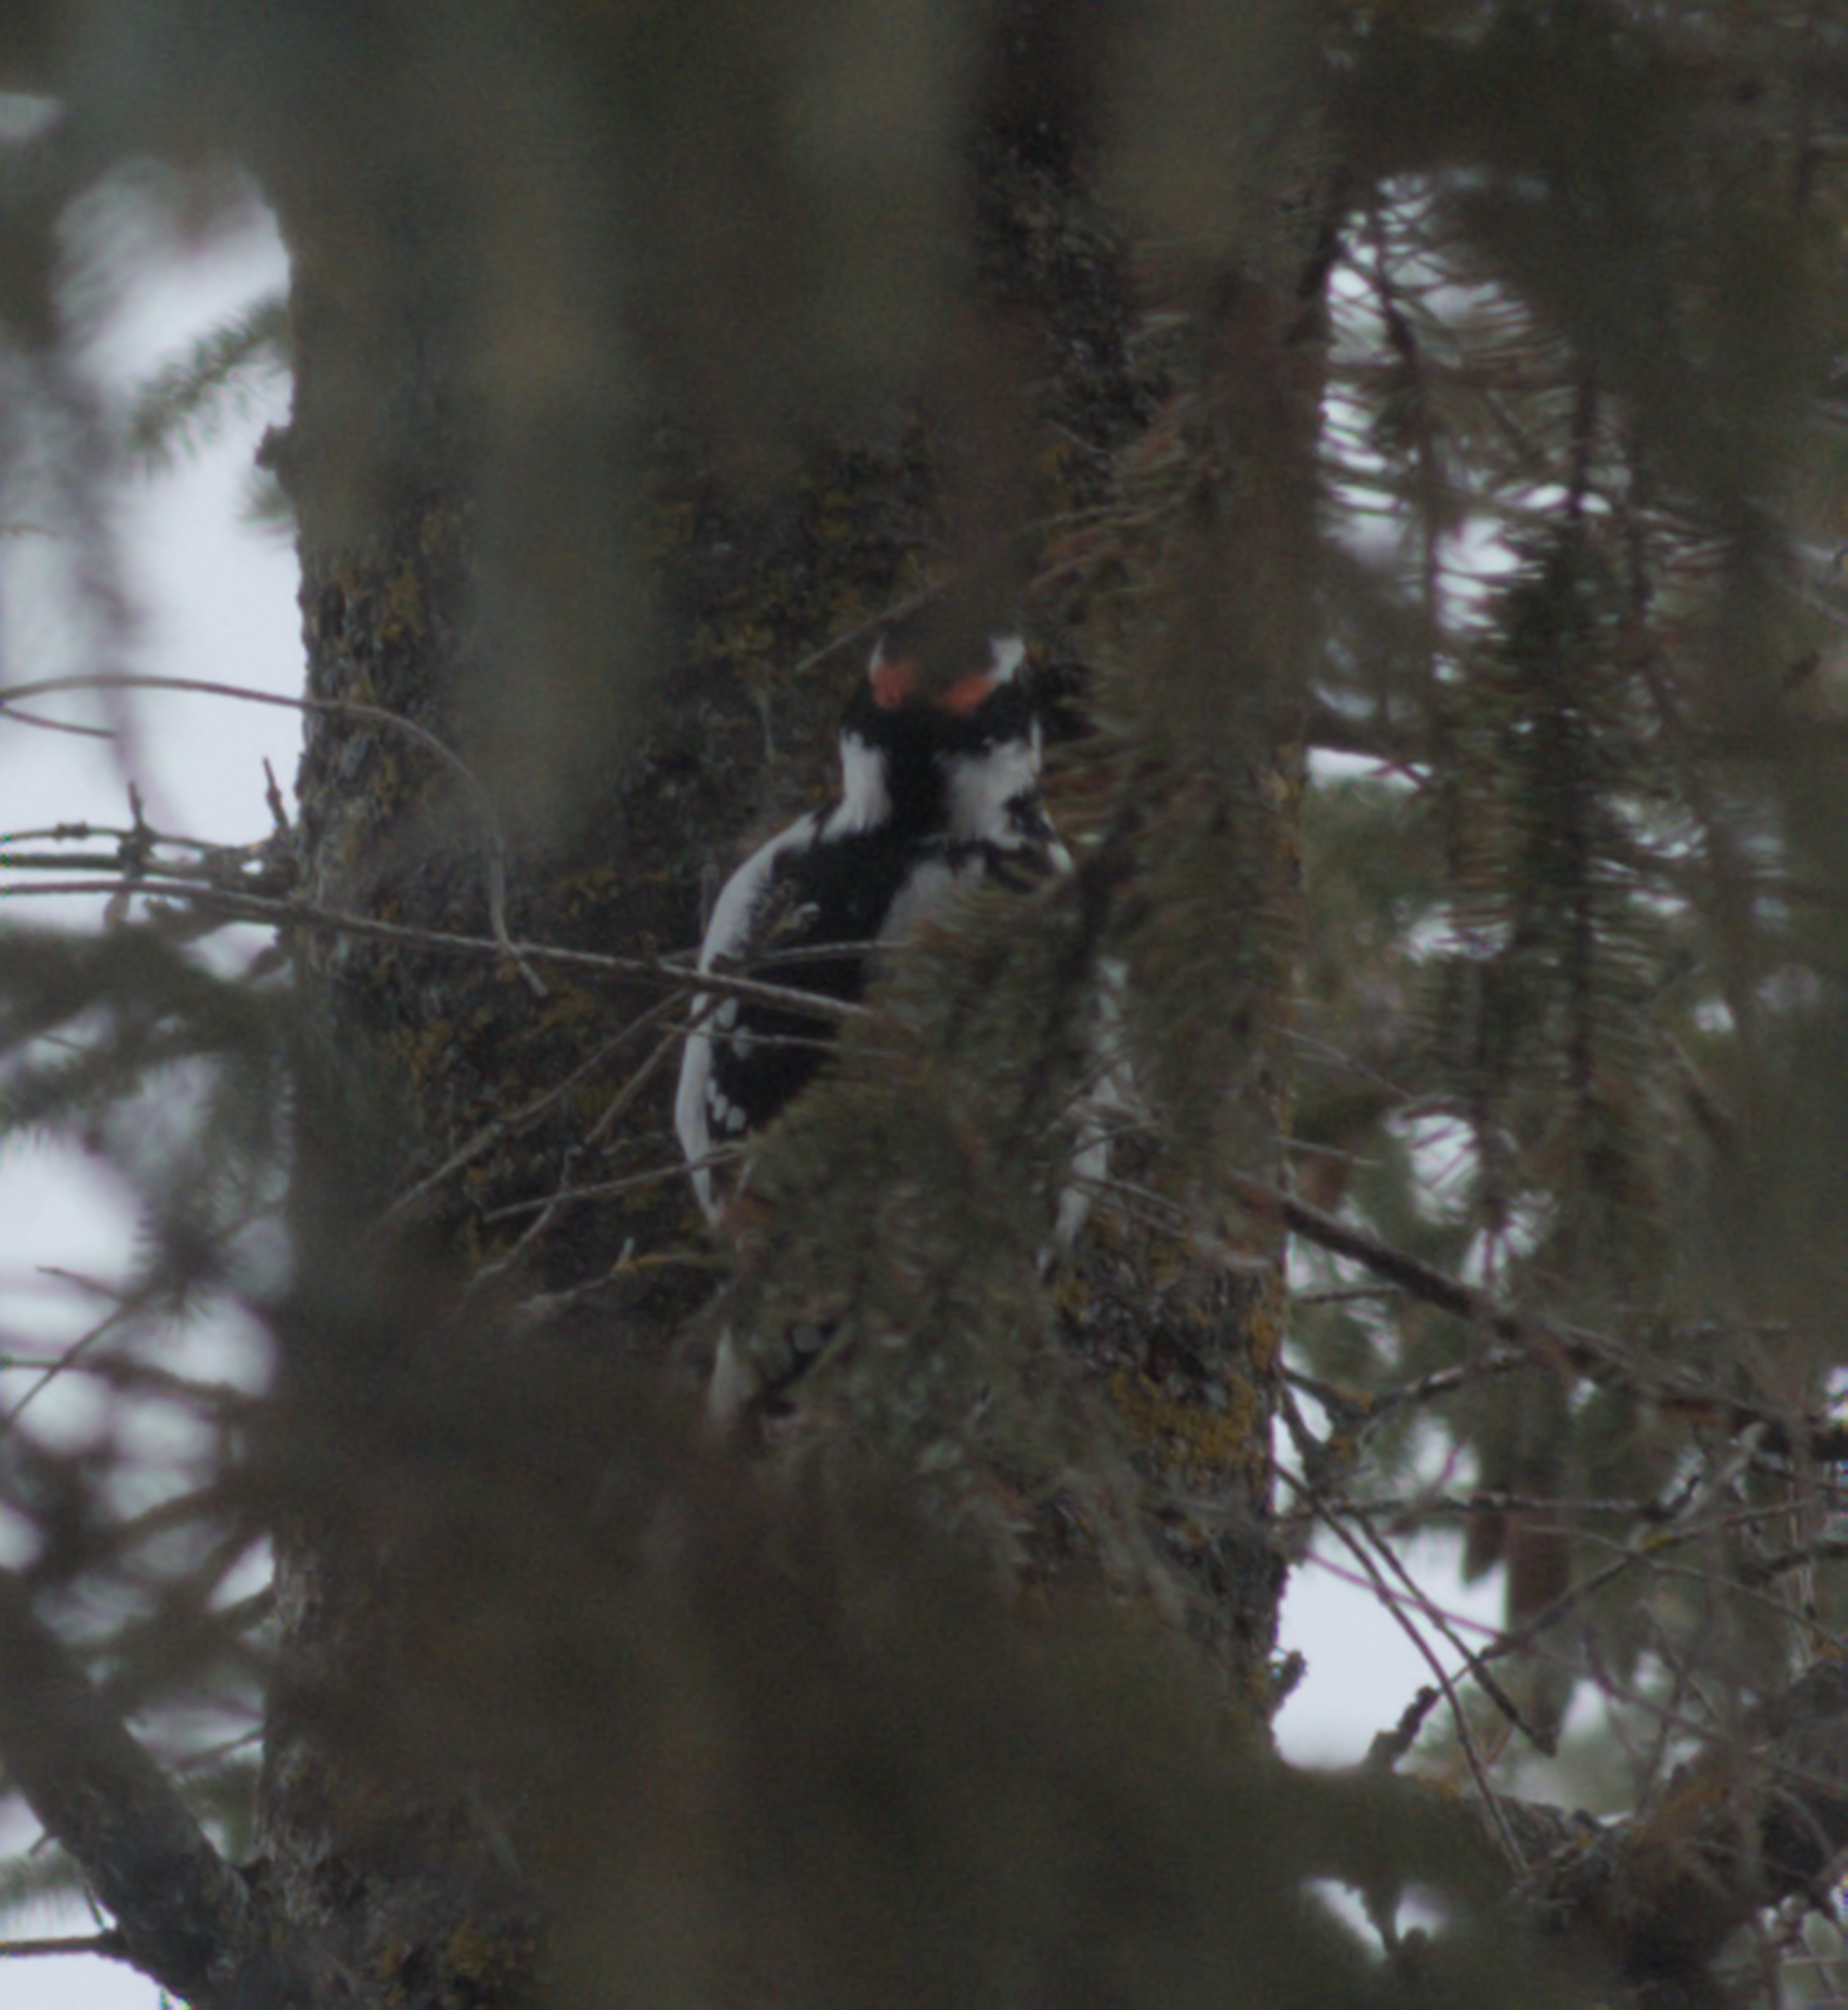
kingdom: Animalia
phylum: Chordata
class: Aves
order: Piciformes
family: Picidae
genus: Leuconotopicus
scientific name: Leuconotopicus villosus
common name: Hairy woodpecker
